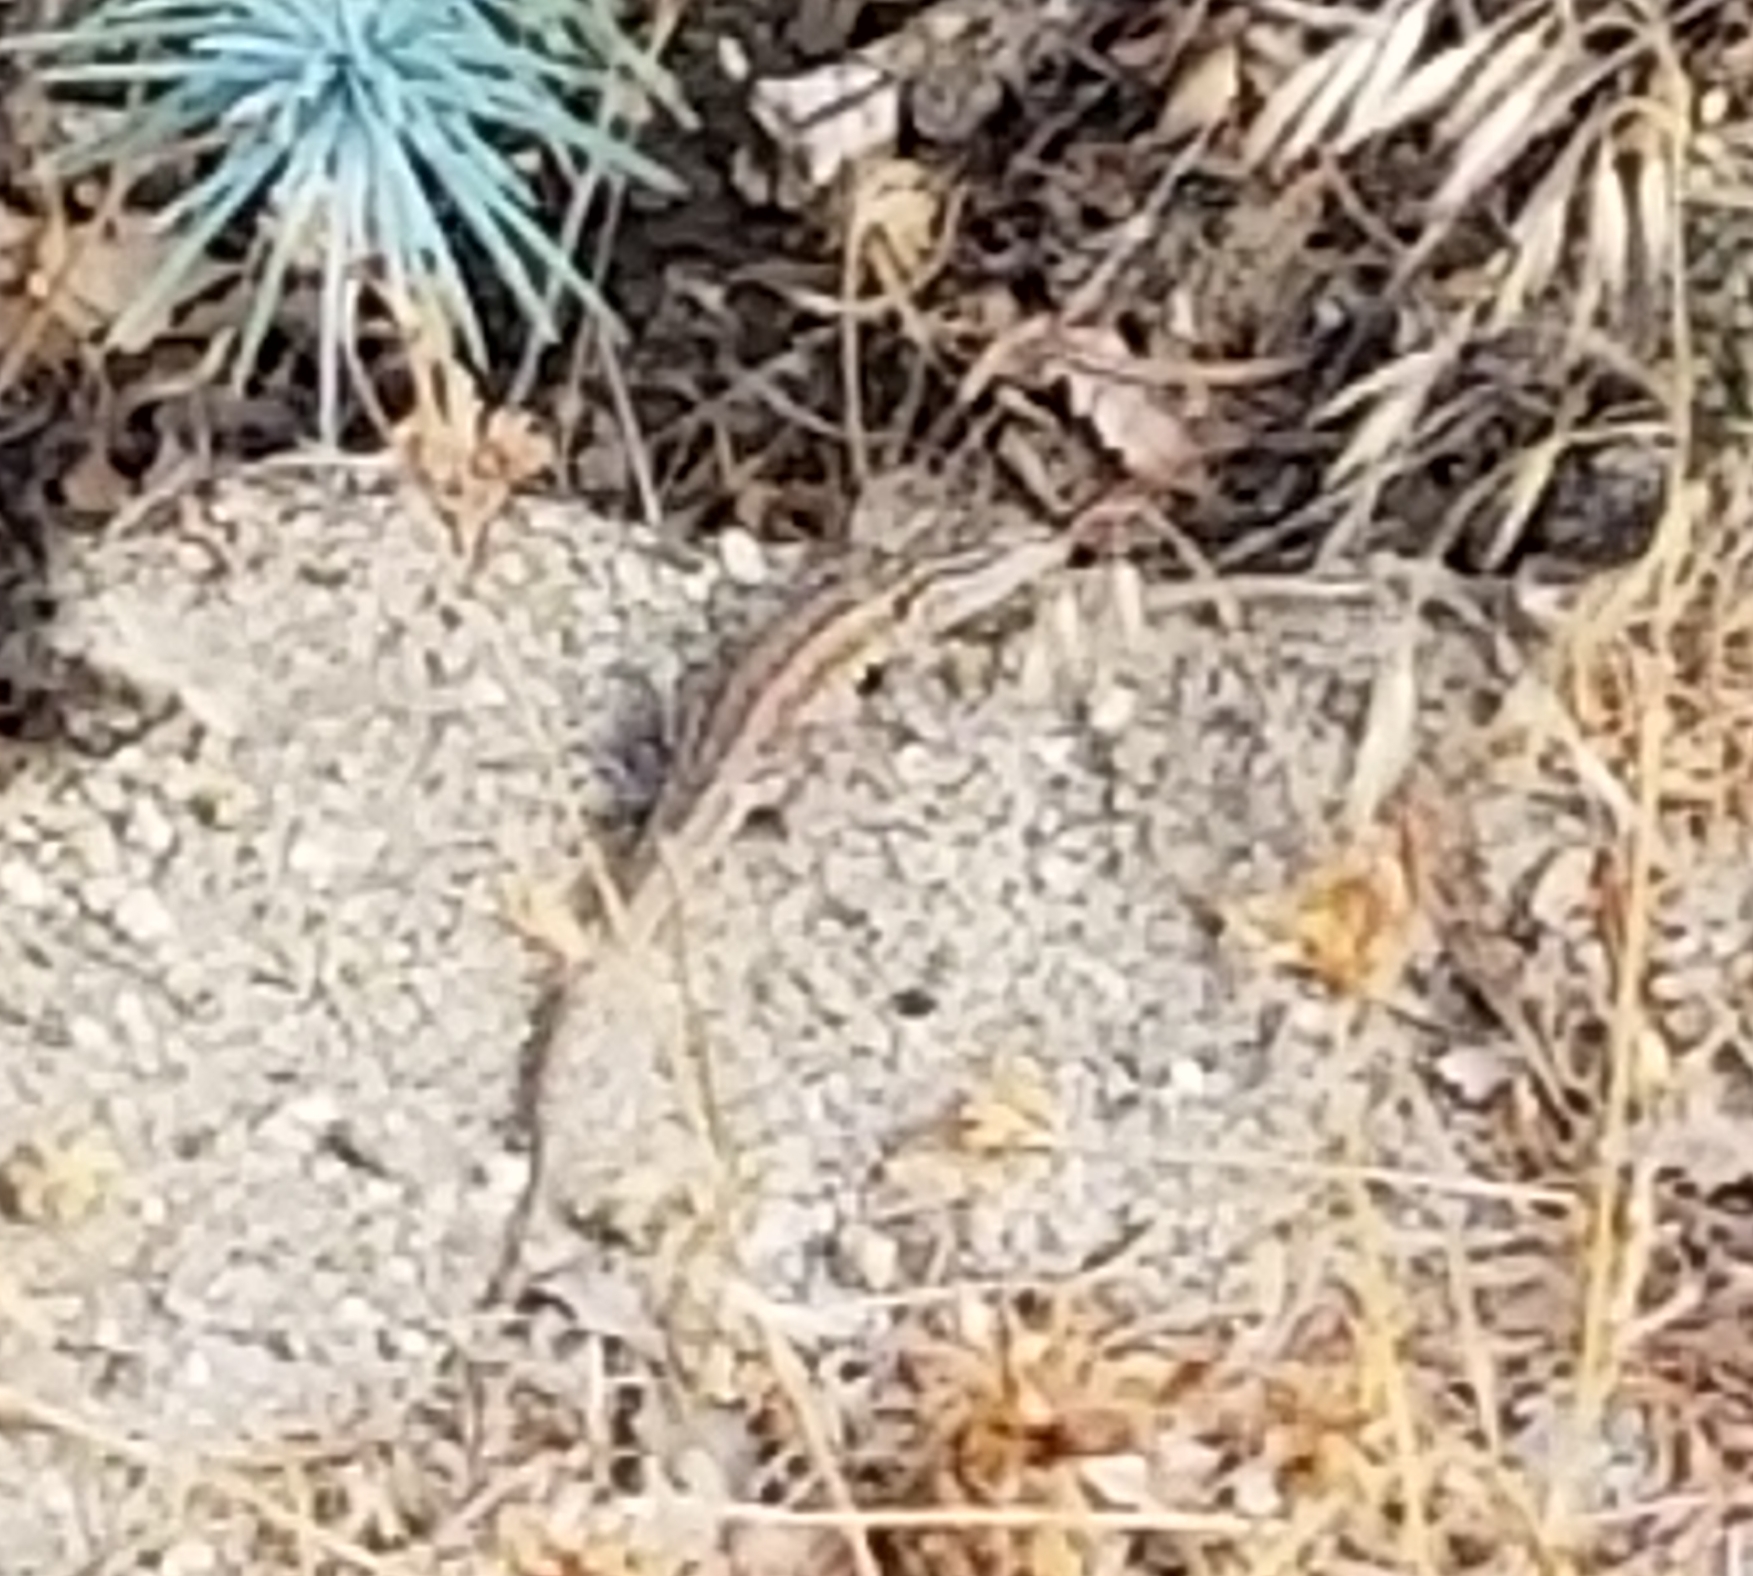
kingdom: Animalia
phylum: Chordata
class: Squamata
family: Phrynosomatidae
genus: Uta
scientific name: Uta stansburiana
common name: Side-blotched lizard
